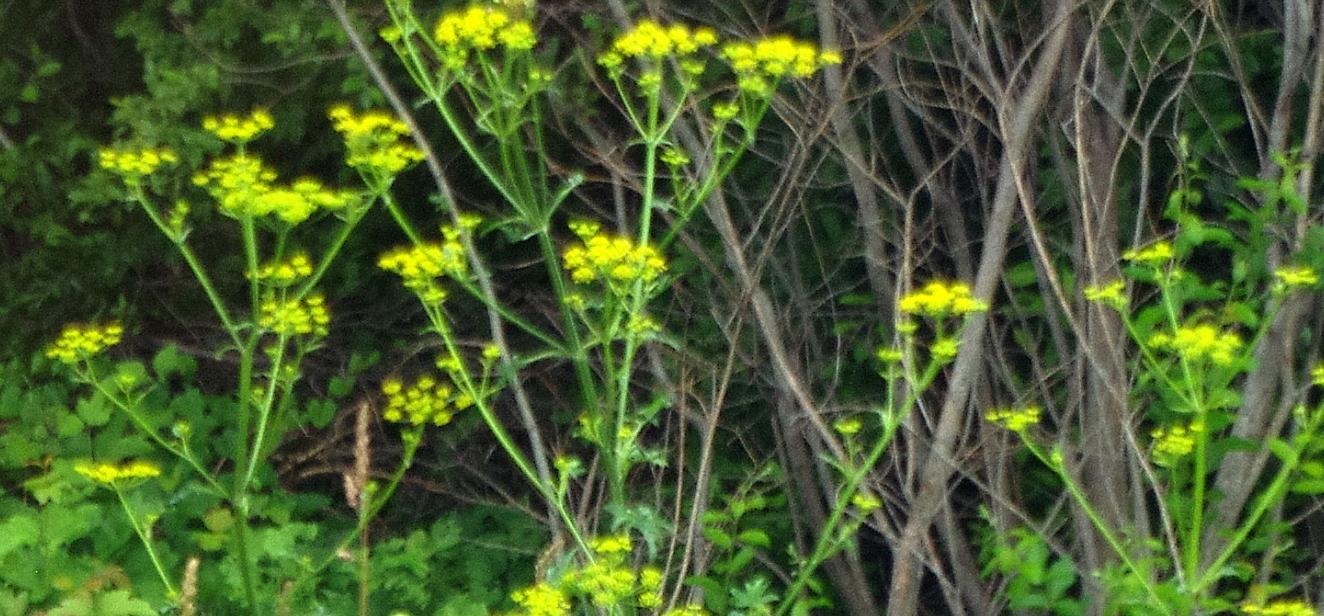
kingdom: Plantae
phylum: Tracheophyta
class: Magnoliopsida
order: Apiales
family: Apiaceae
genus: Pastinaca
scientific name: Pastinaca sativa
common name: Wild parsnip
